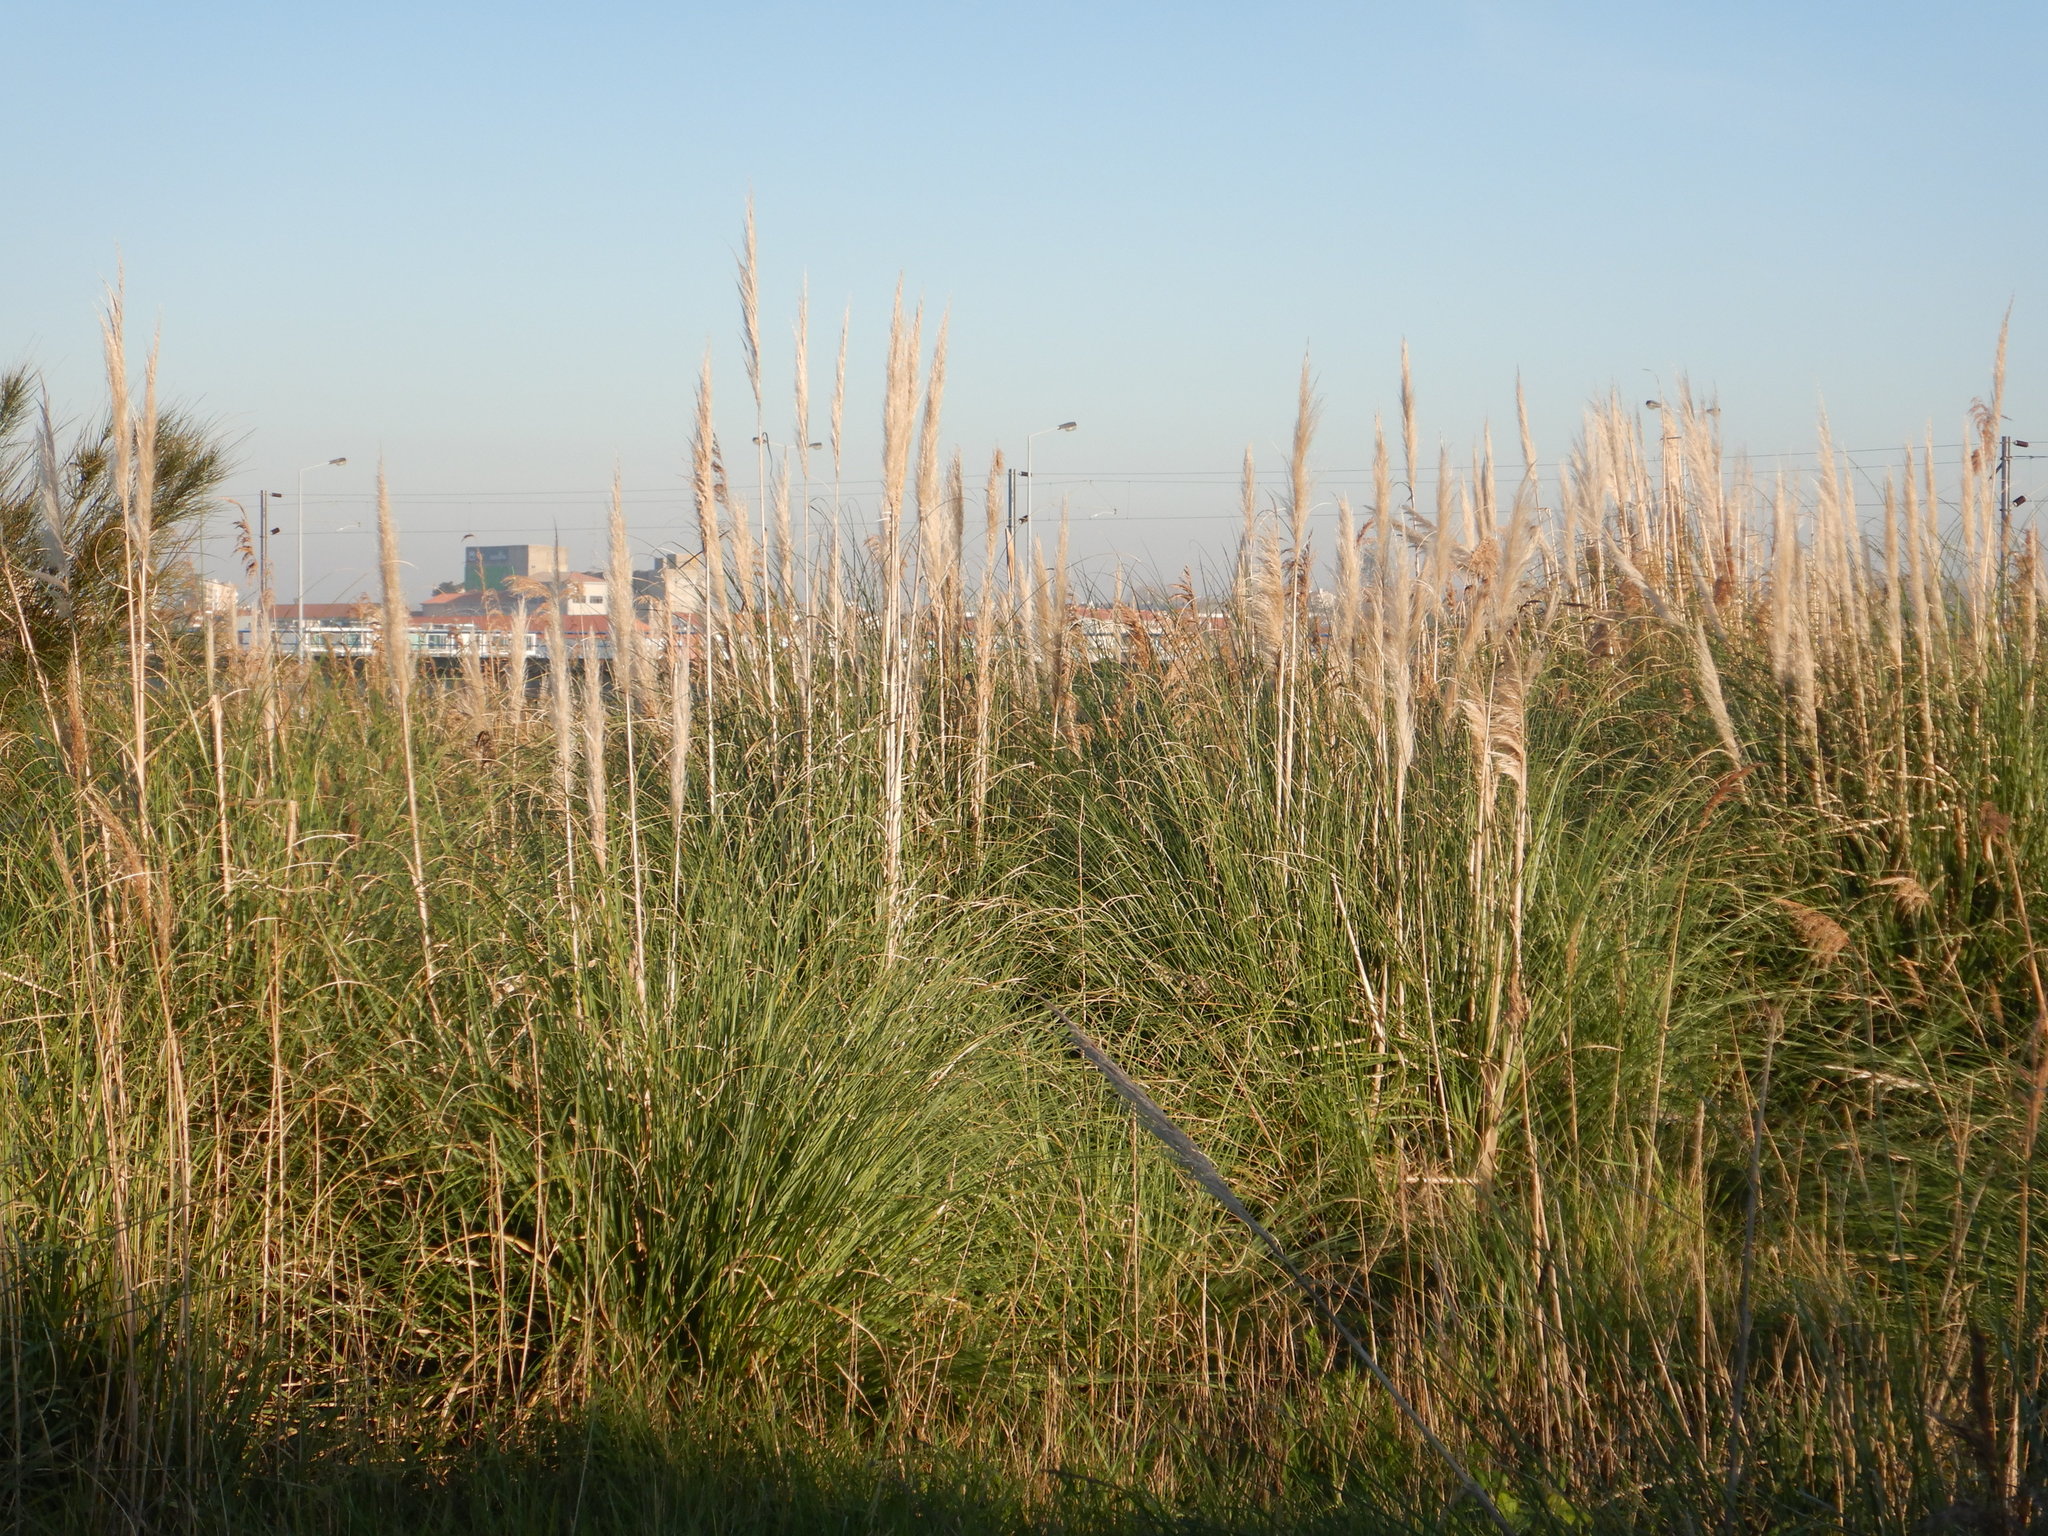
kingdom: Plantae
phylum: Tracheophyta
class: Liliopsida
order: Poales
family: Poaceae
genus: Cortaderia
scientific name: Cortaderia selloana
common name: Uruguayan pampas grass
